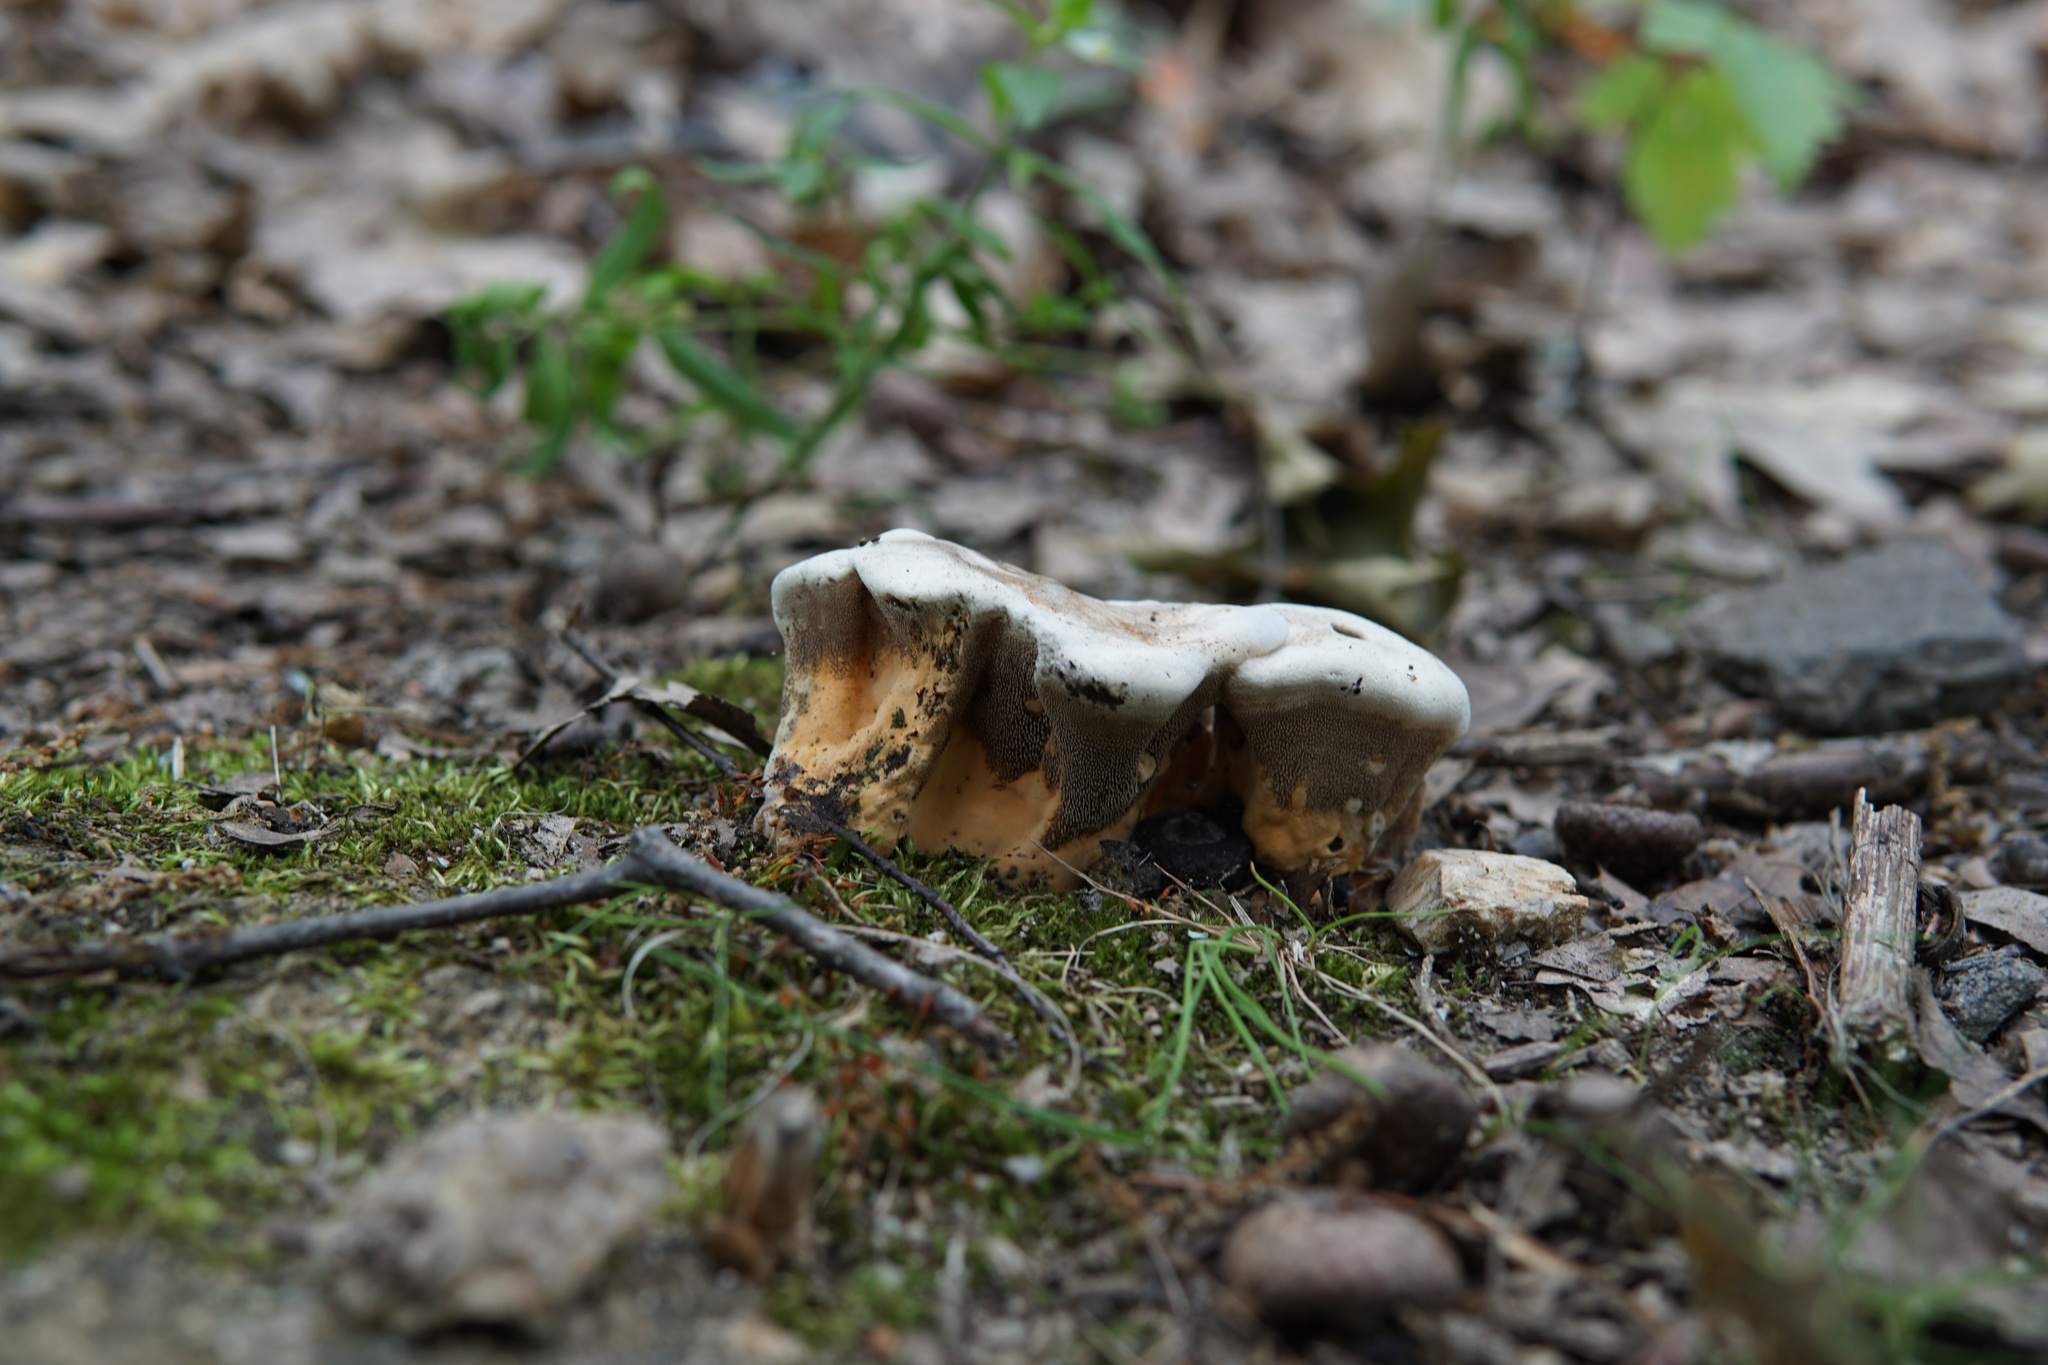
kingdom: Fungi
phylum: Basidiomycota
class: Agaricomycetes
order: Thelephorales
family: Bankeraceae
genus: Hydnellum
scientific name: Hydnellum aurantiacum
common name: Orange tooth
